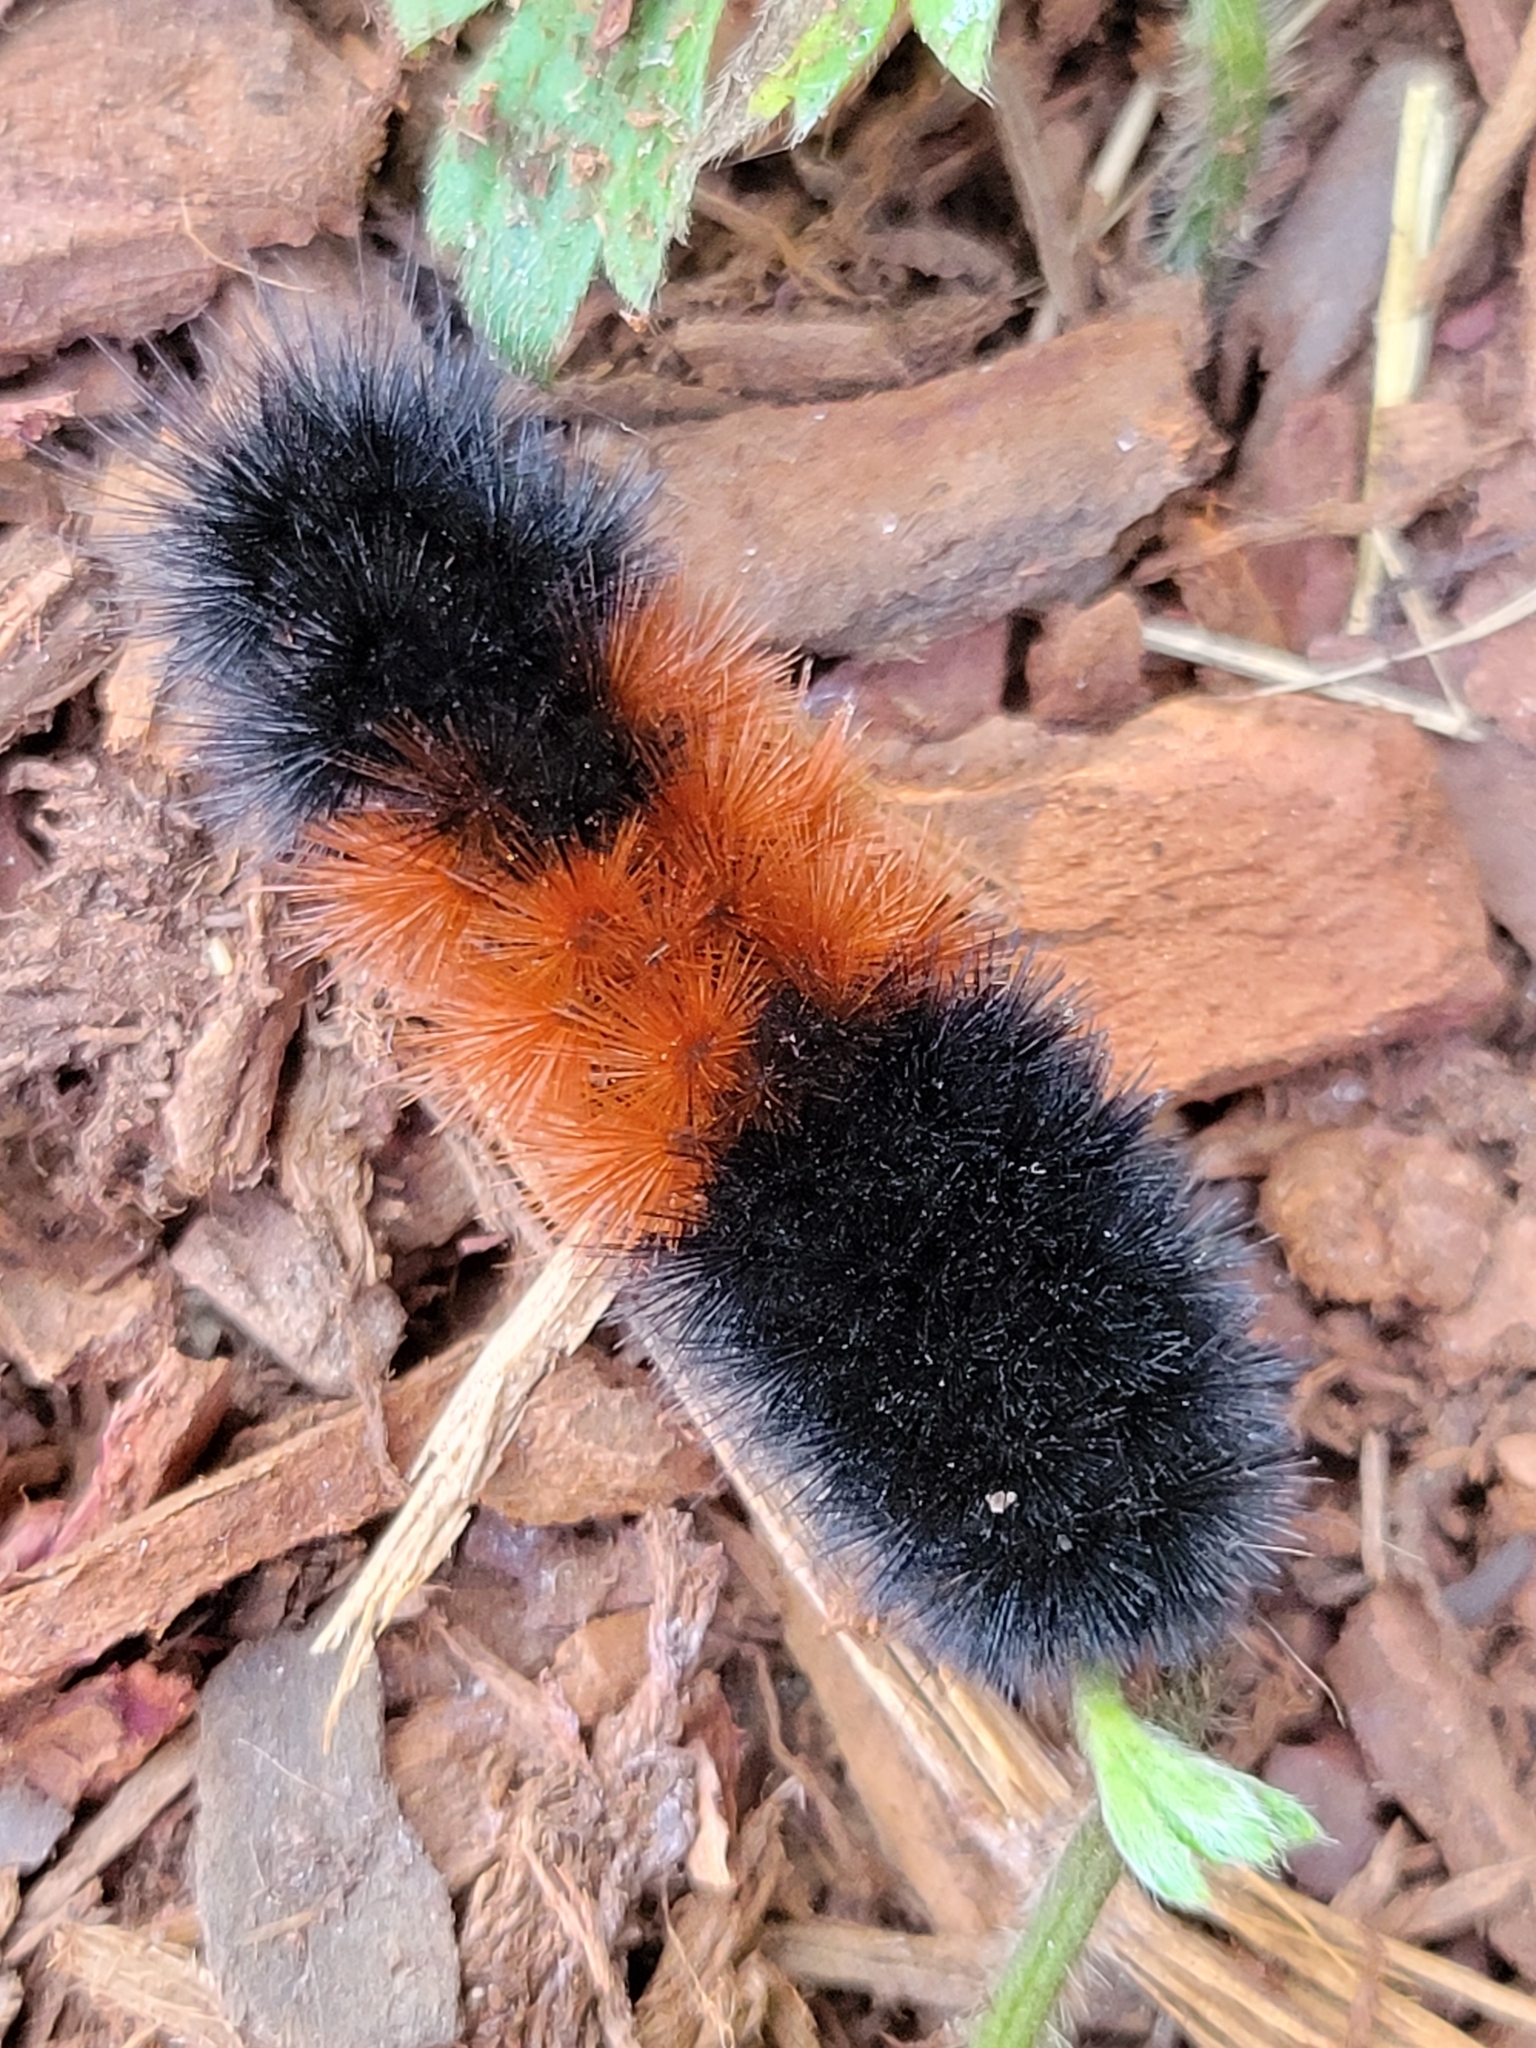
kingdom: Animalia
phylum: Arthropoda
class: Insecta
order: Lepidoptera
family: Erebidae
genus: Pyrrharctia
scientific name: Pyrrharctia isabella
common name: Isabella tiger moth
